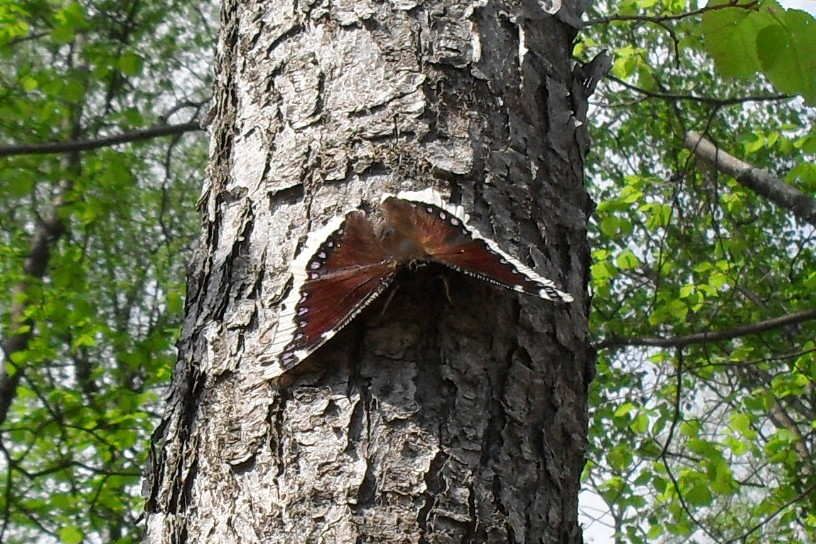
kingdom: Animalia
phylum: Arthropoda
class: Insecta
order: Lepidoptera
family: Nymphalidae
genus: Nymphalis
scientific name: Nymphalis antiopa
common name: Camberwell beauty
